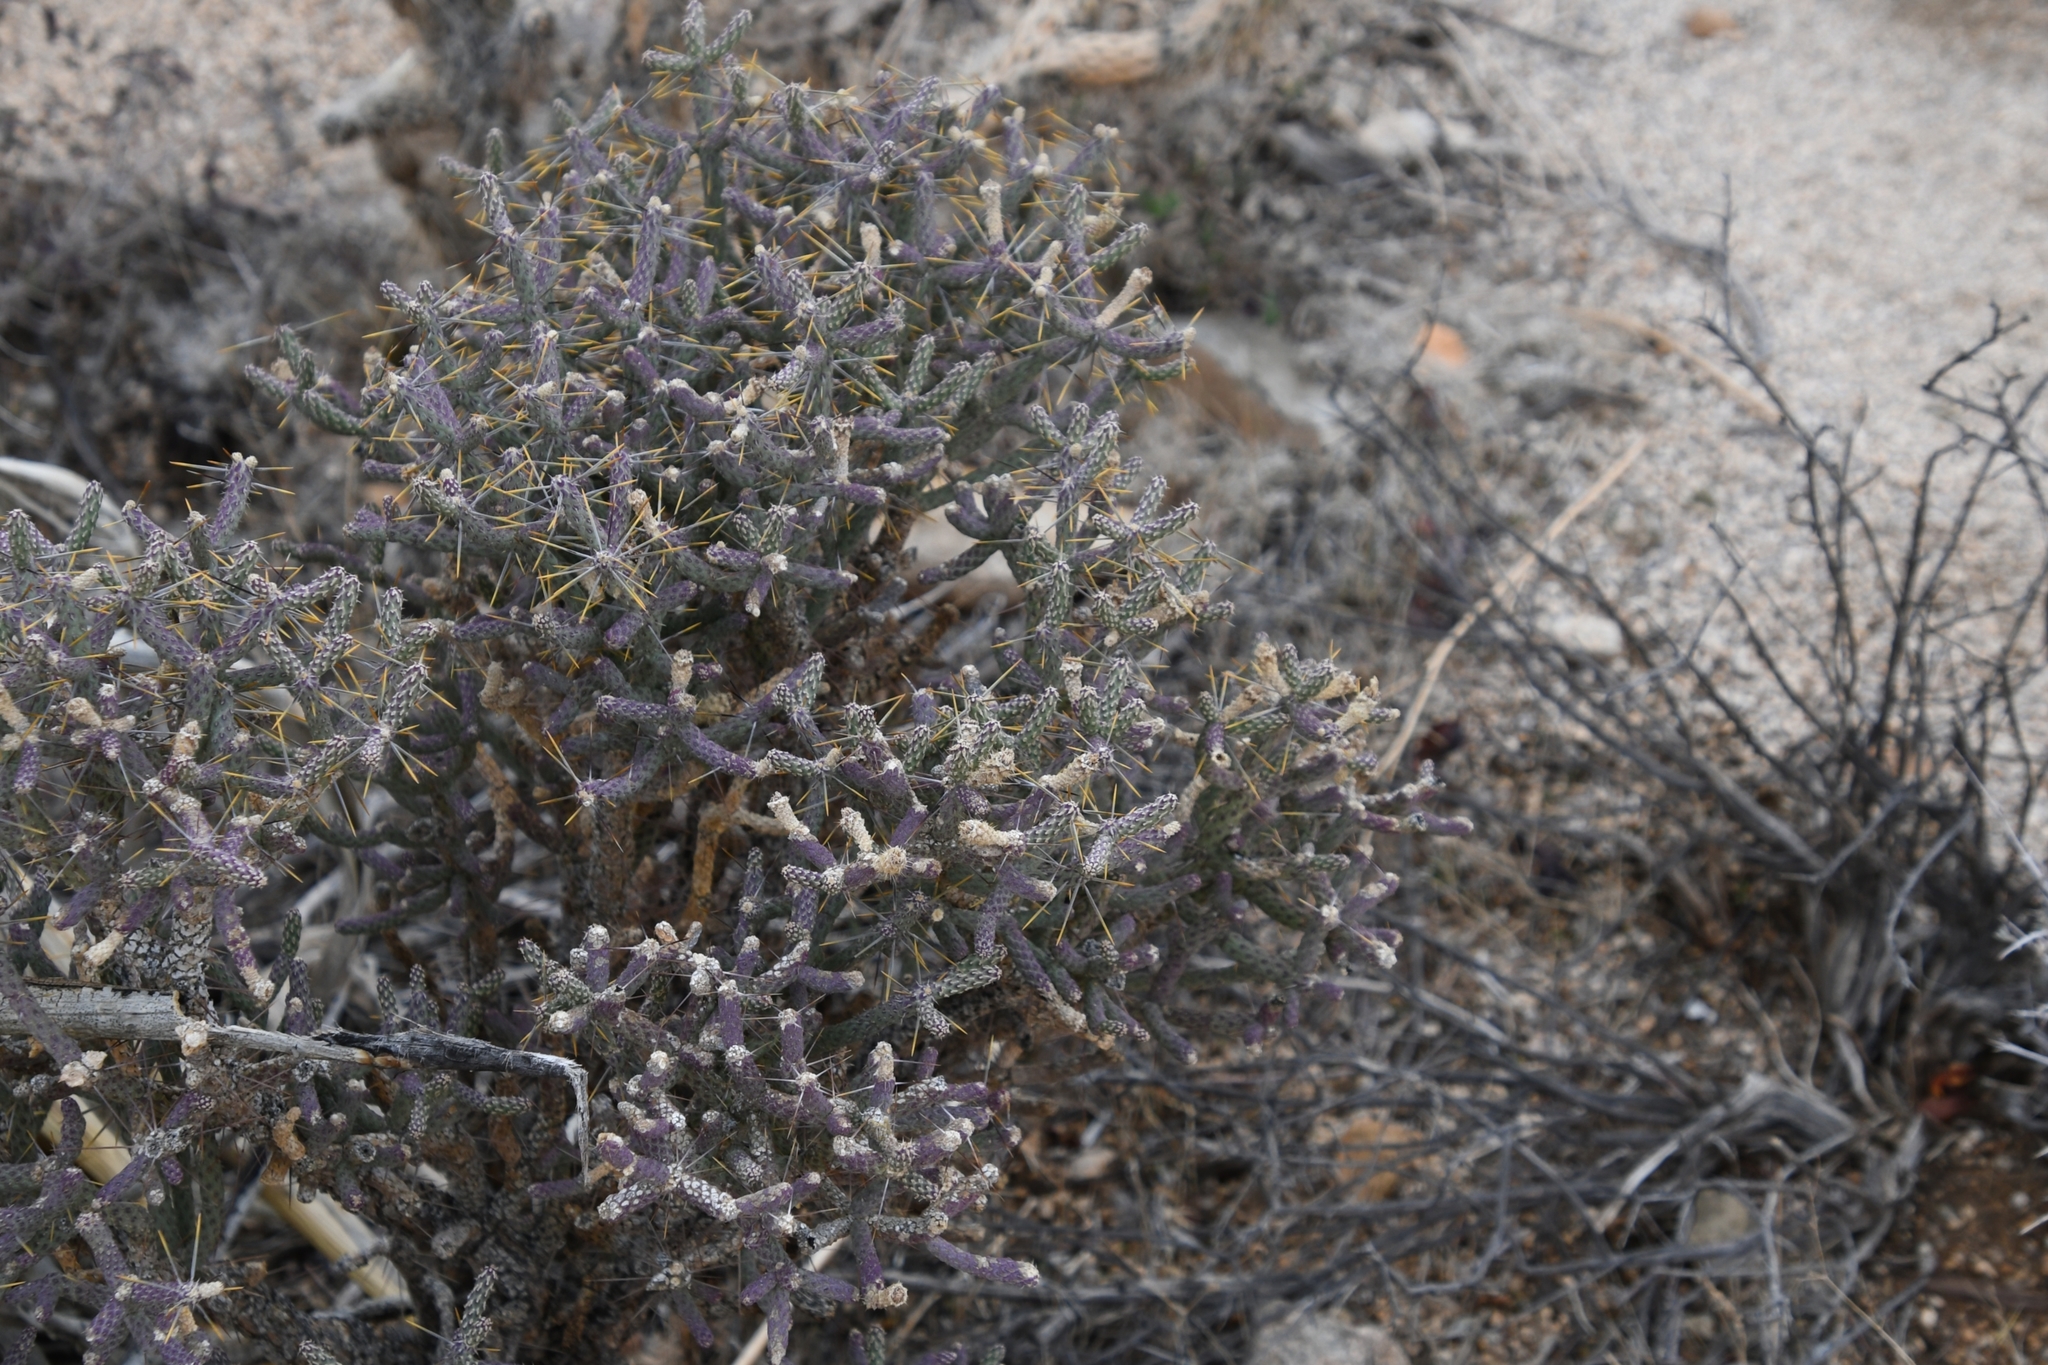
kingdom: Plantae
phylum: Tracheophyta
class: Magnoliopsida
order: Caryophyllales
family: Cactaceae
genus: Cylindropuntia
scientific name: Cylindropuntia ramosissima
